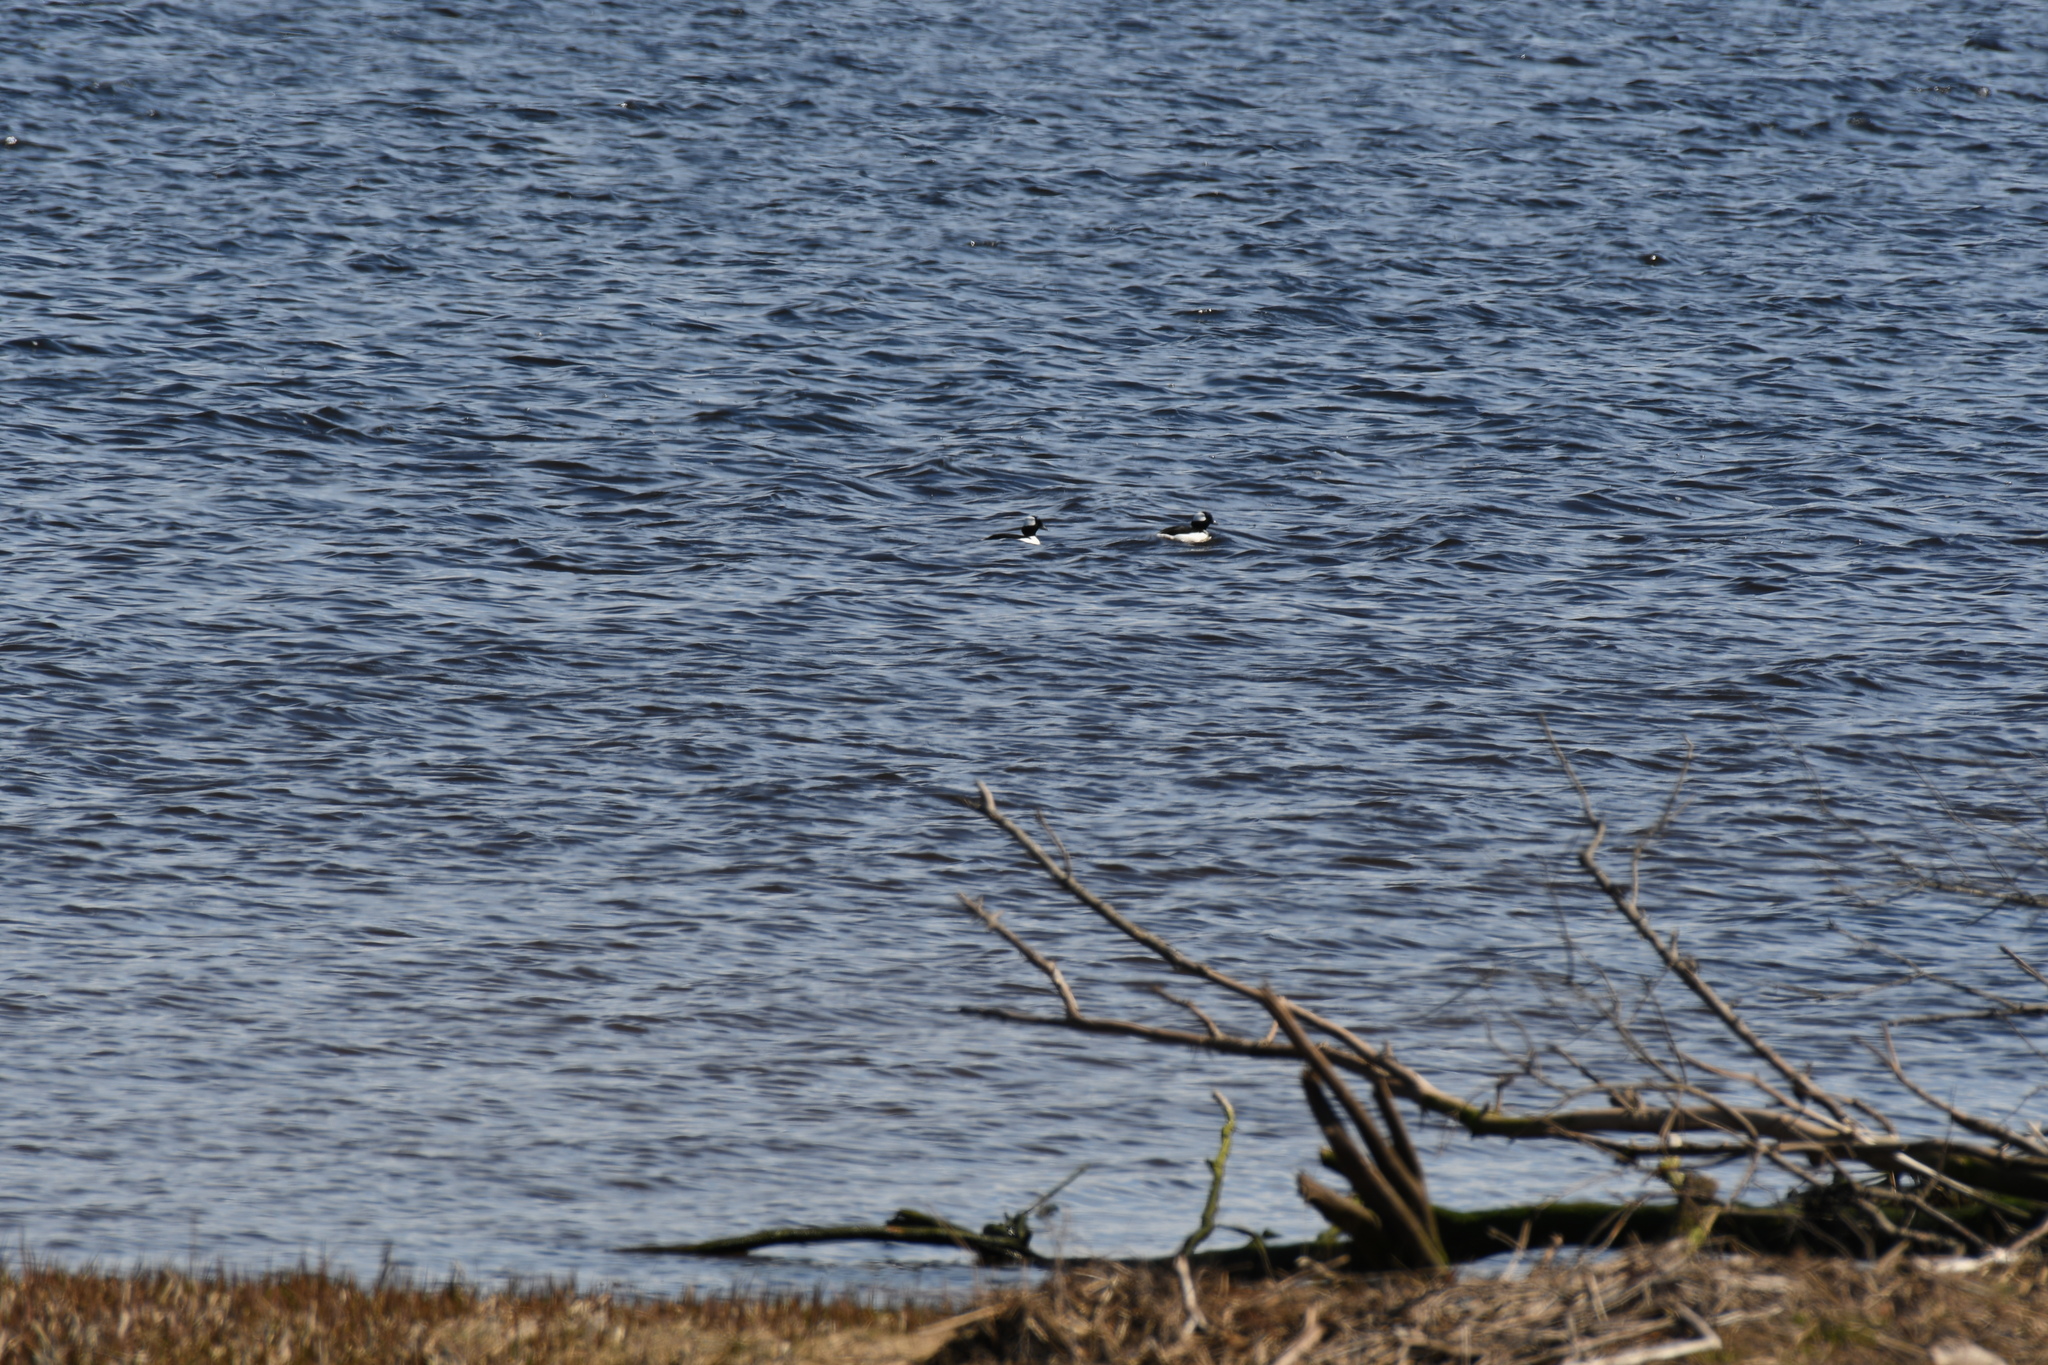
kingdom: Animalia
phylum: Chordata
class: Aves
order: Anseriformes
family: Anatidae
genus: Bucephala
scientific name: Bucephala albeola
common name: Bufflehead
